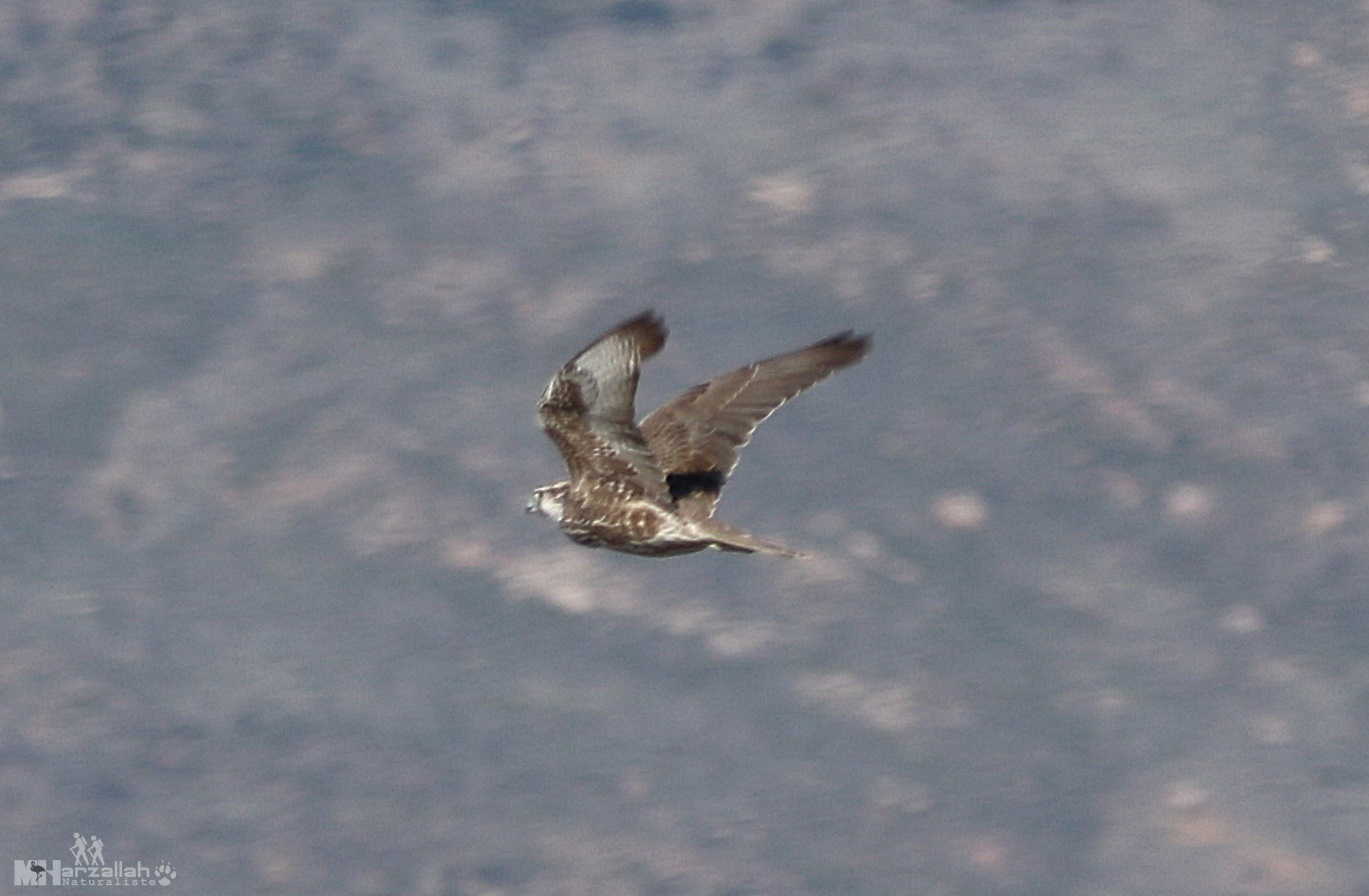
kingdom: Animalia
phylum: Chordata
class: Aves
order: Falconiformes
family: Falconidae
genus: Falco
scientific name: Falco cherrug
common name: Saker falcon
